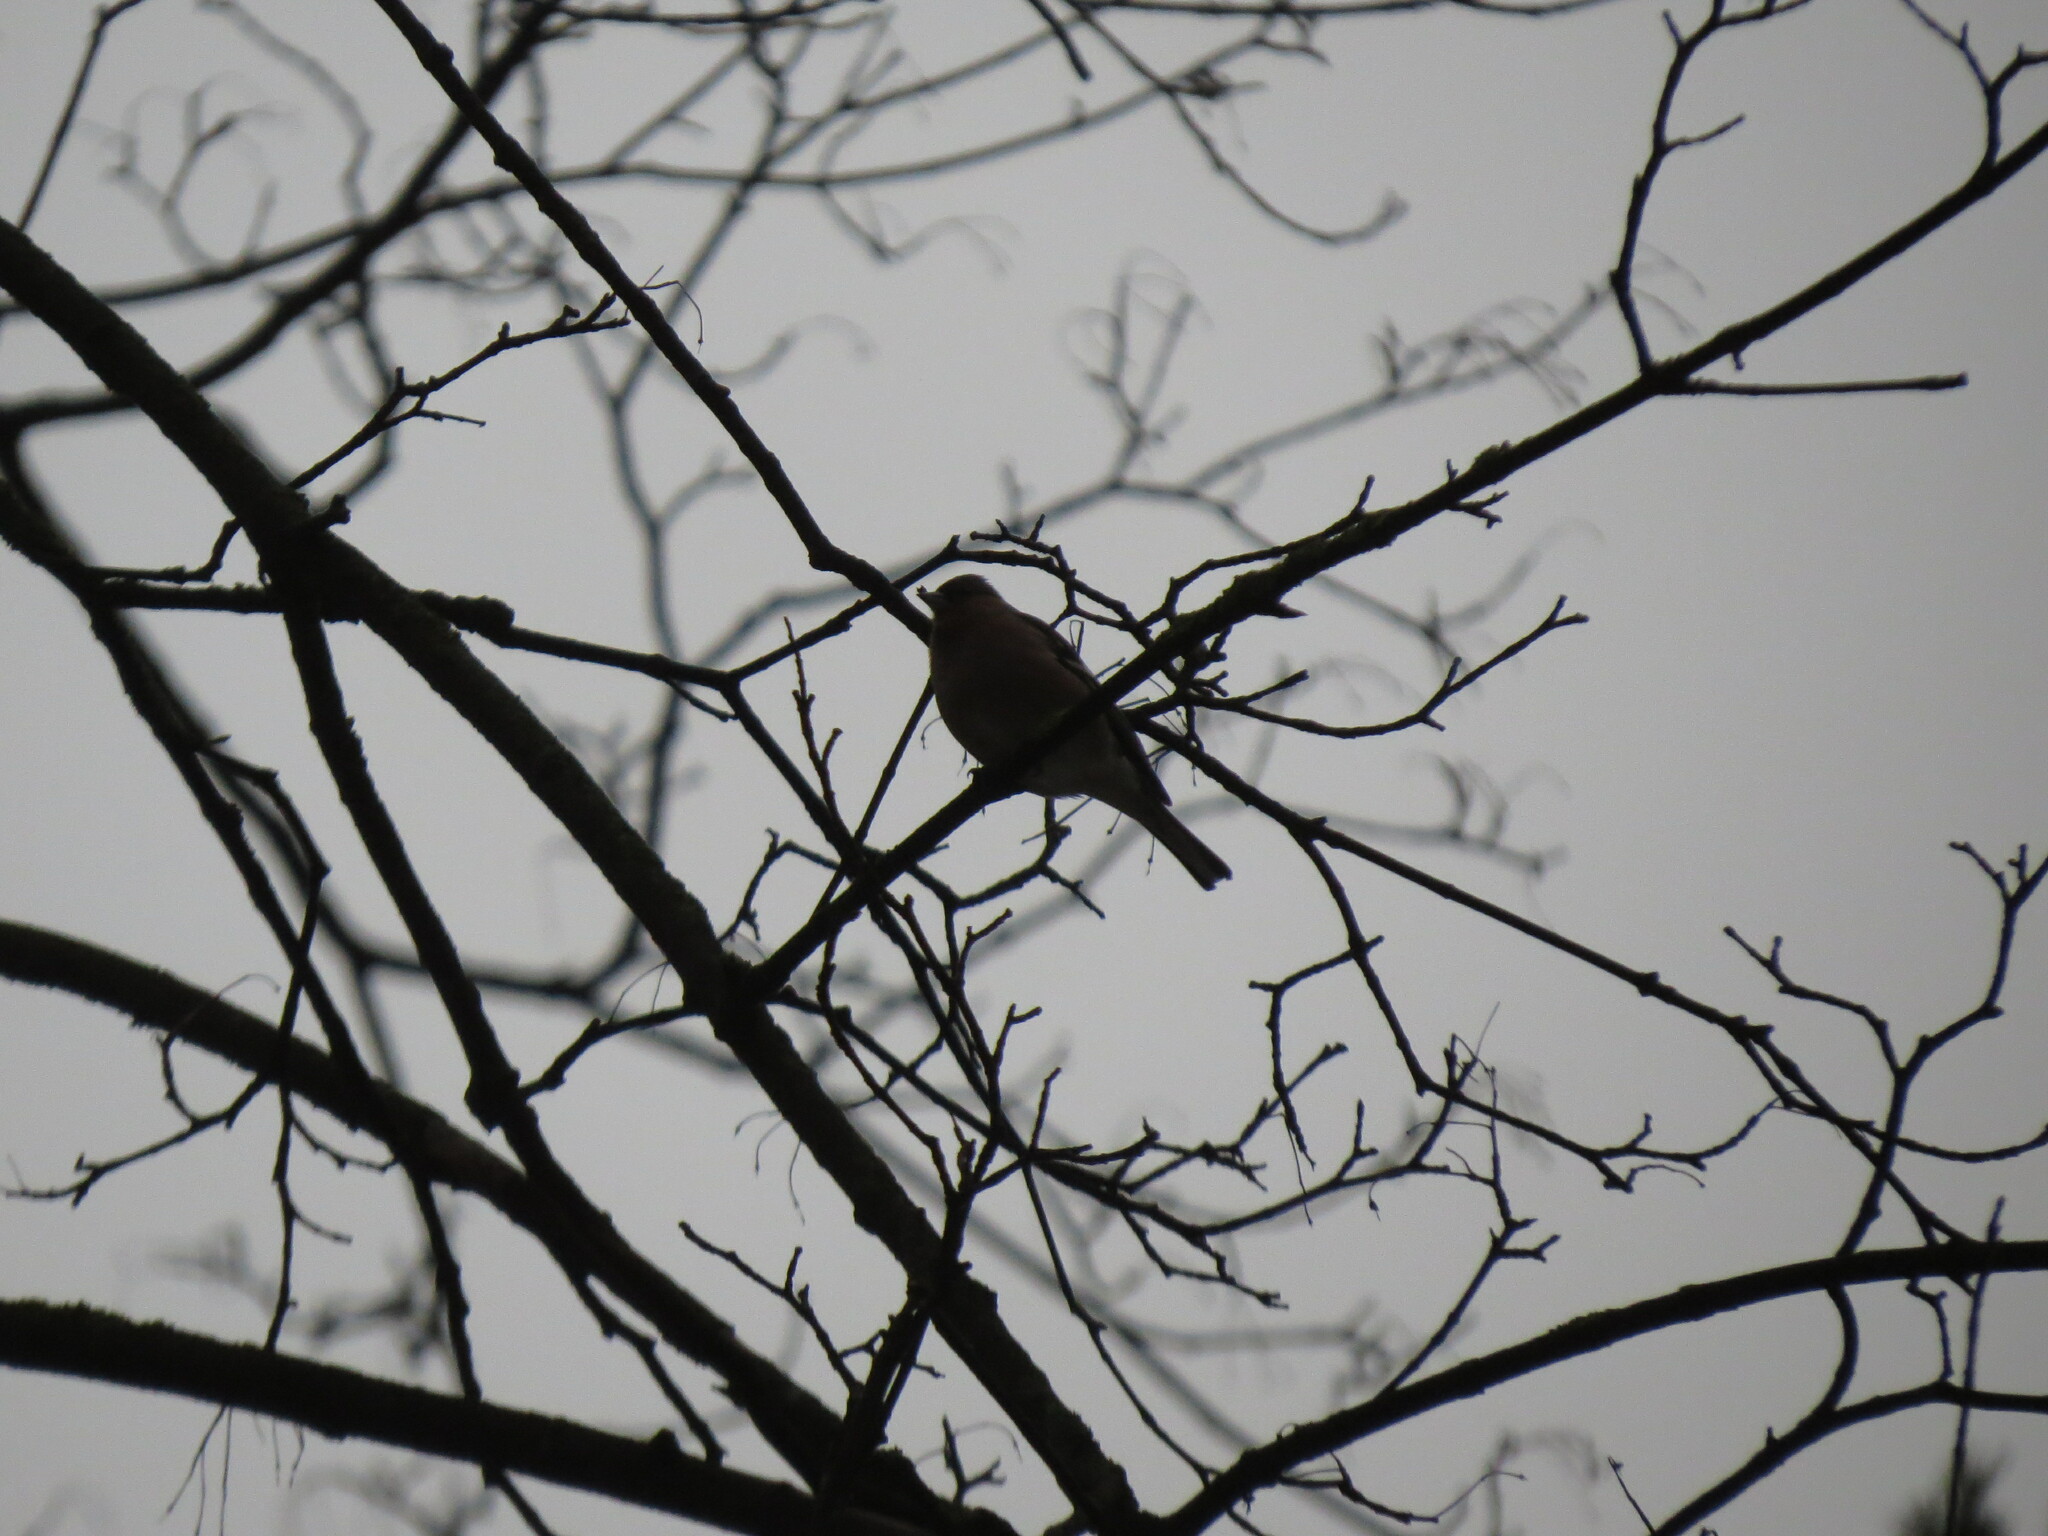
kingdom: Animalia
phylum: Chordata
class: Aves
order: Passeriformes
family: Fringillidae
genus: Fringilla
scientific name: Fringilla coelebs
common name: Common chaffinch
